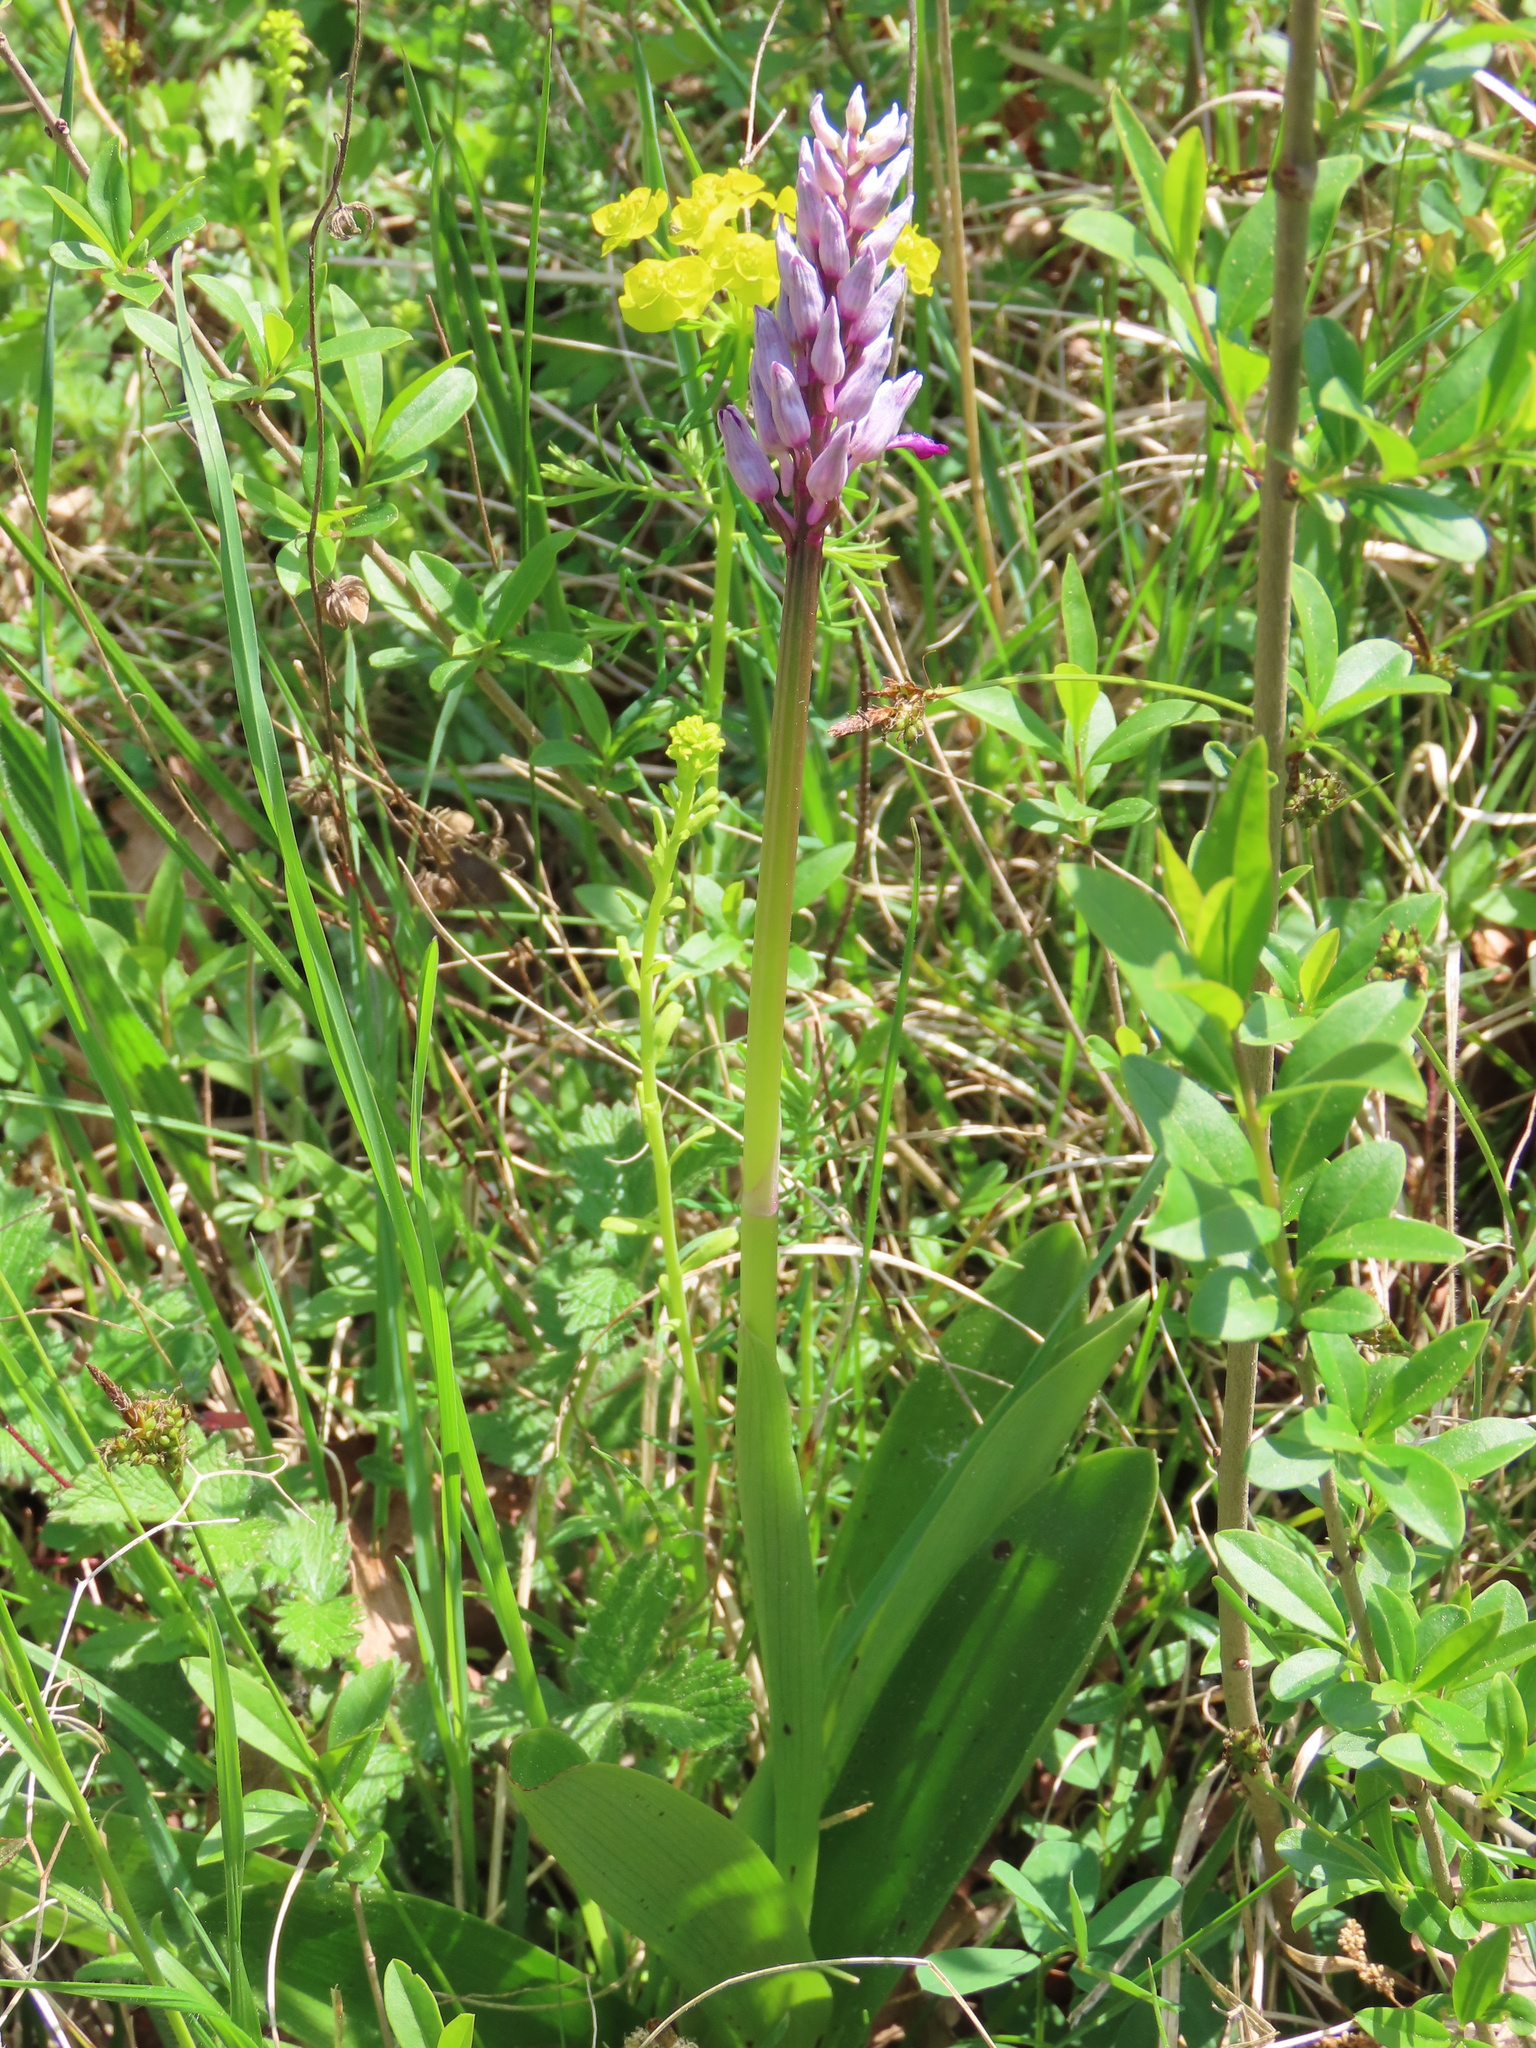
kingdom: Plantae
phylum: Tracheophyta
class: Liliopsida
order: Asparagales
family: Orchidaceae
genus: Orchis
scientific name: Orchis militaris
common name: Military orchid
